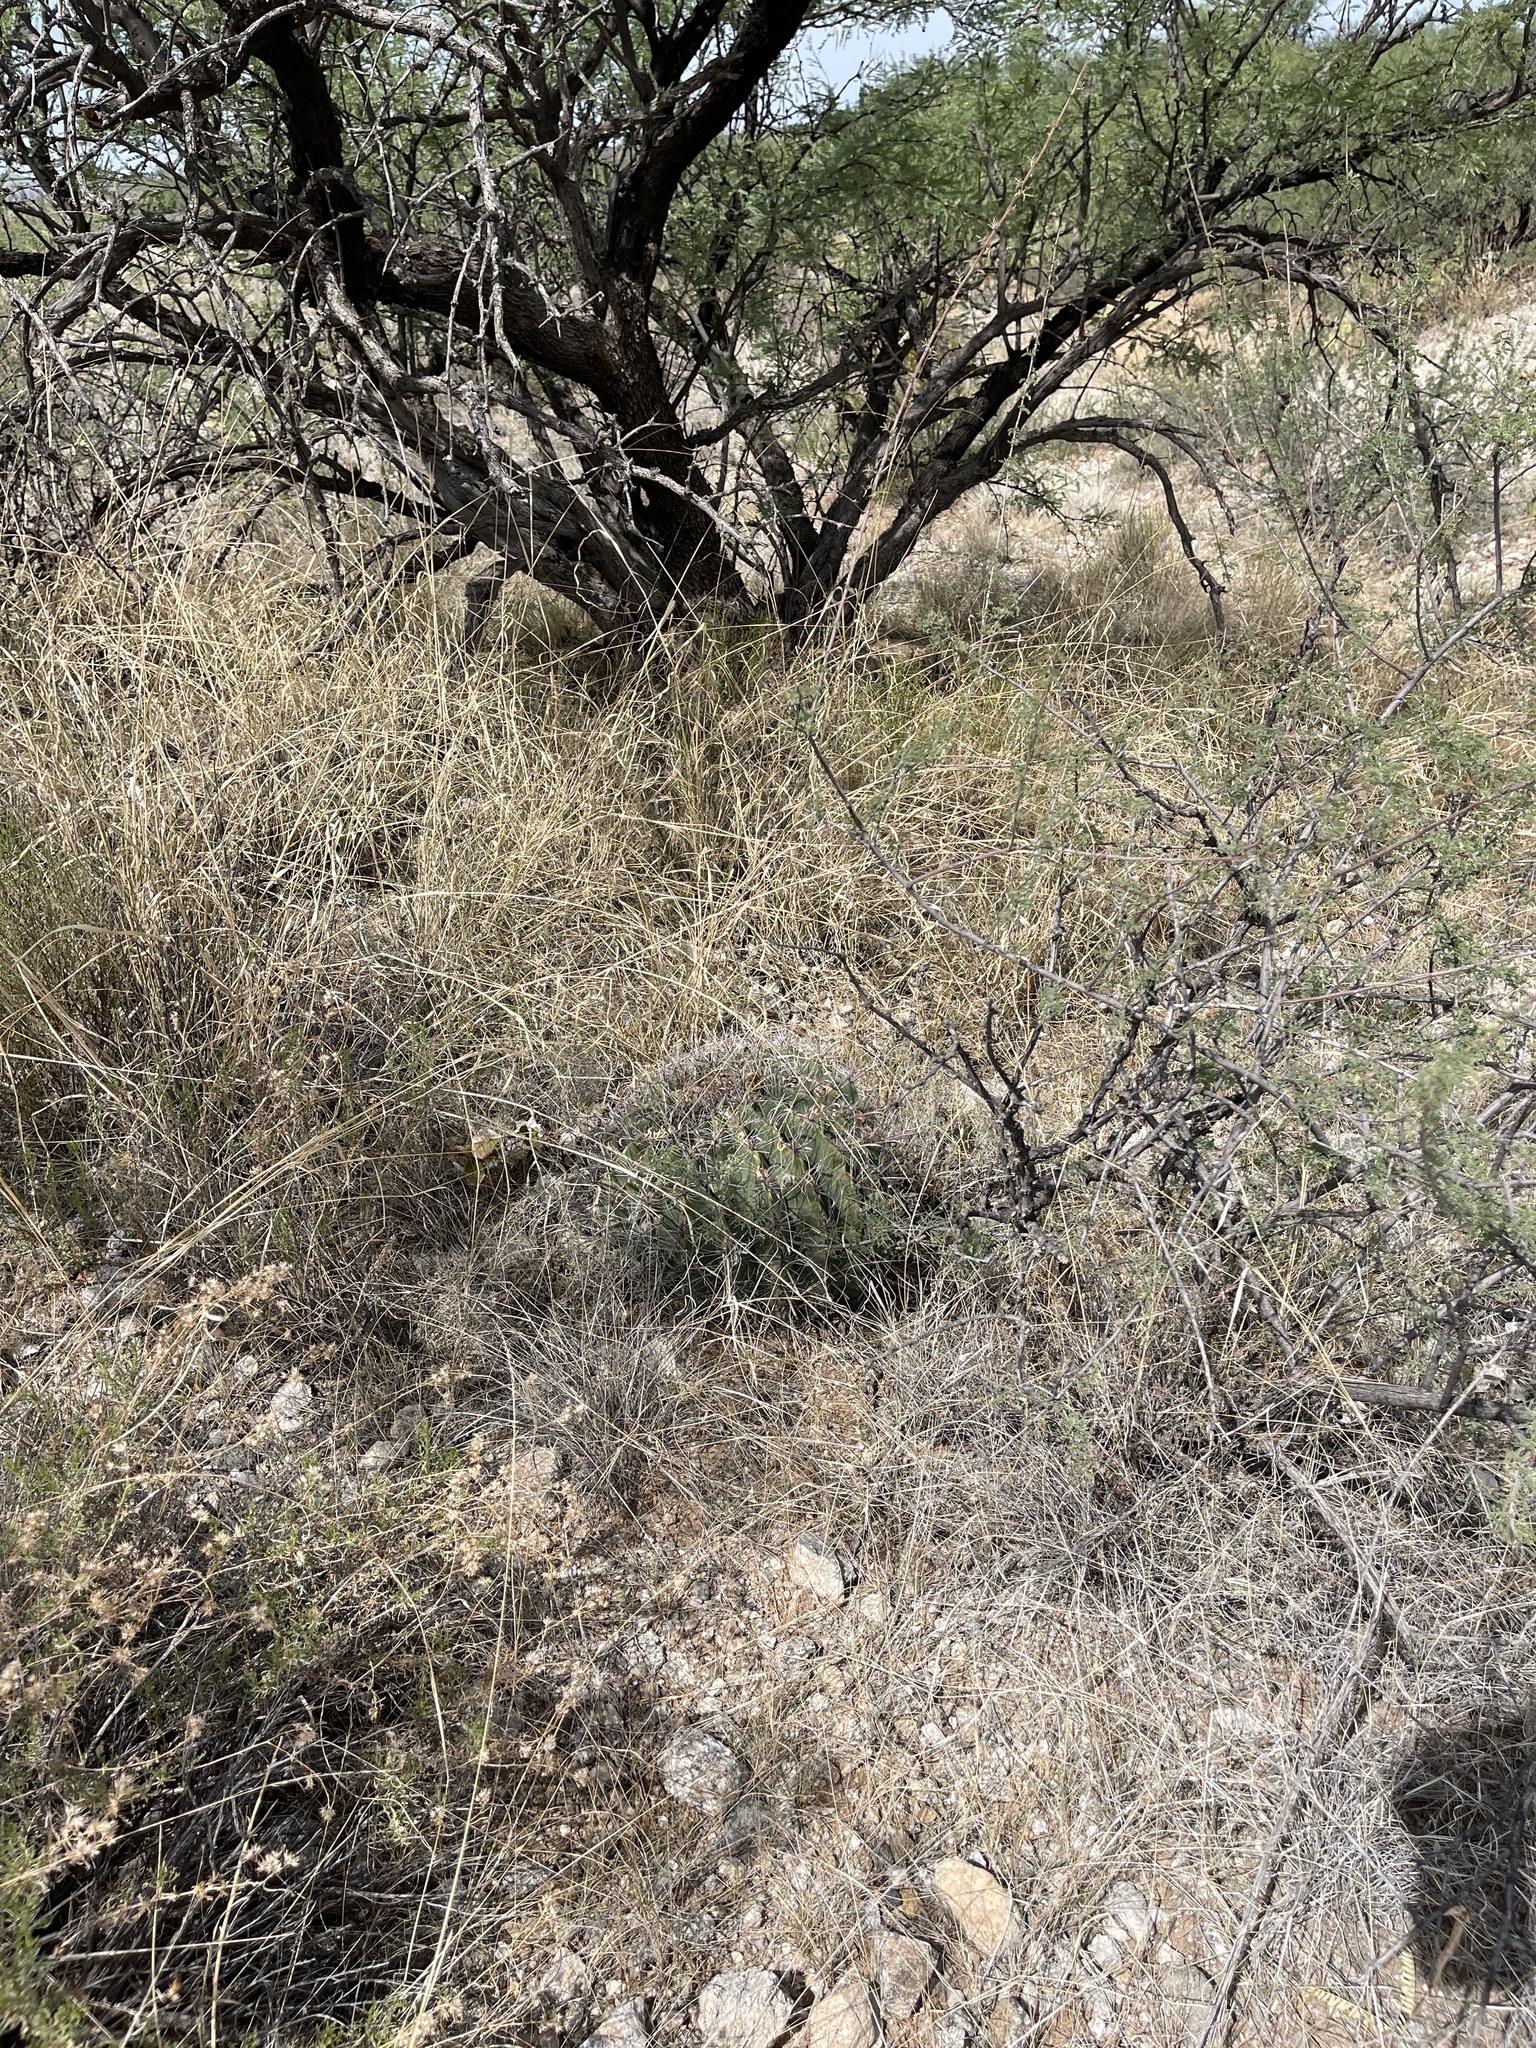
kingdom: Plantae
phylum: Tracheophyta
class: Magnoliopsida
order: Caryophyllales
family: Cactaceae
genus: Ferocactus
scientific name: Ferocactus wislizeni
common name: Candy barrel cactus
